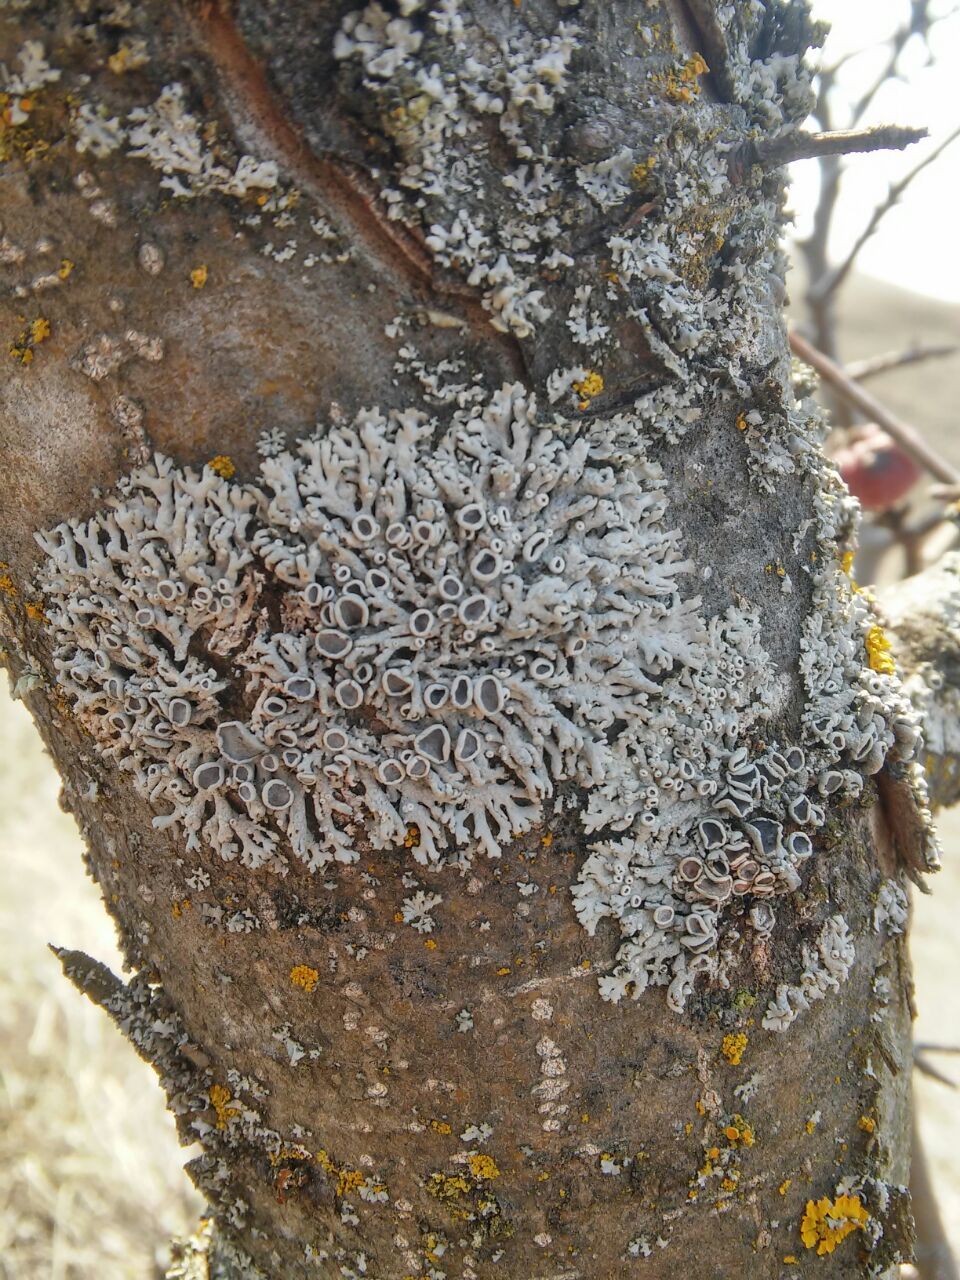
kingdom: Fungi
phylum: Ascomycota
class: Lecanoromycetes
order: Caliciales
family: Physciaceae
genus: Physcia
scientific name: Physcia stellaris
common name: Star rosette lichen
